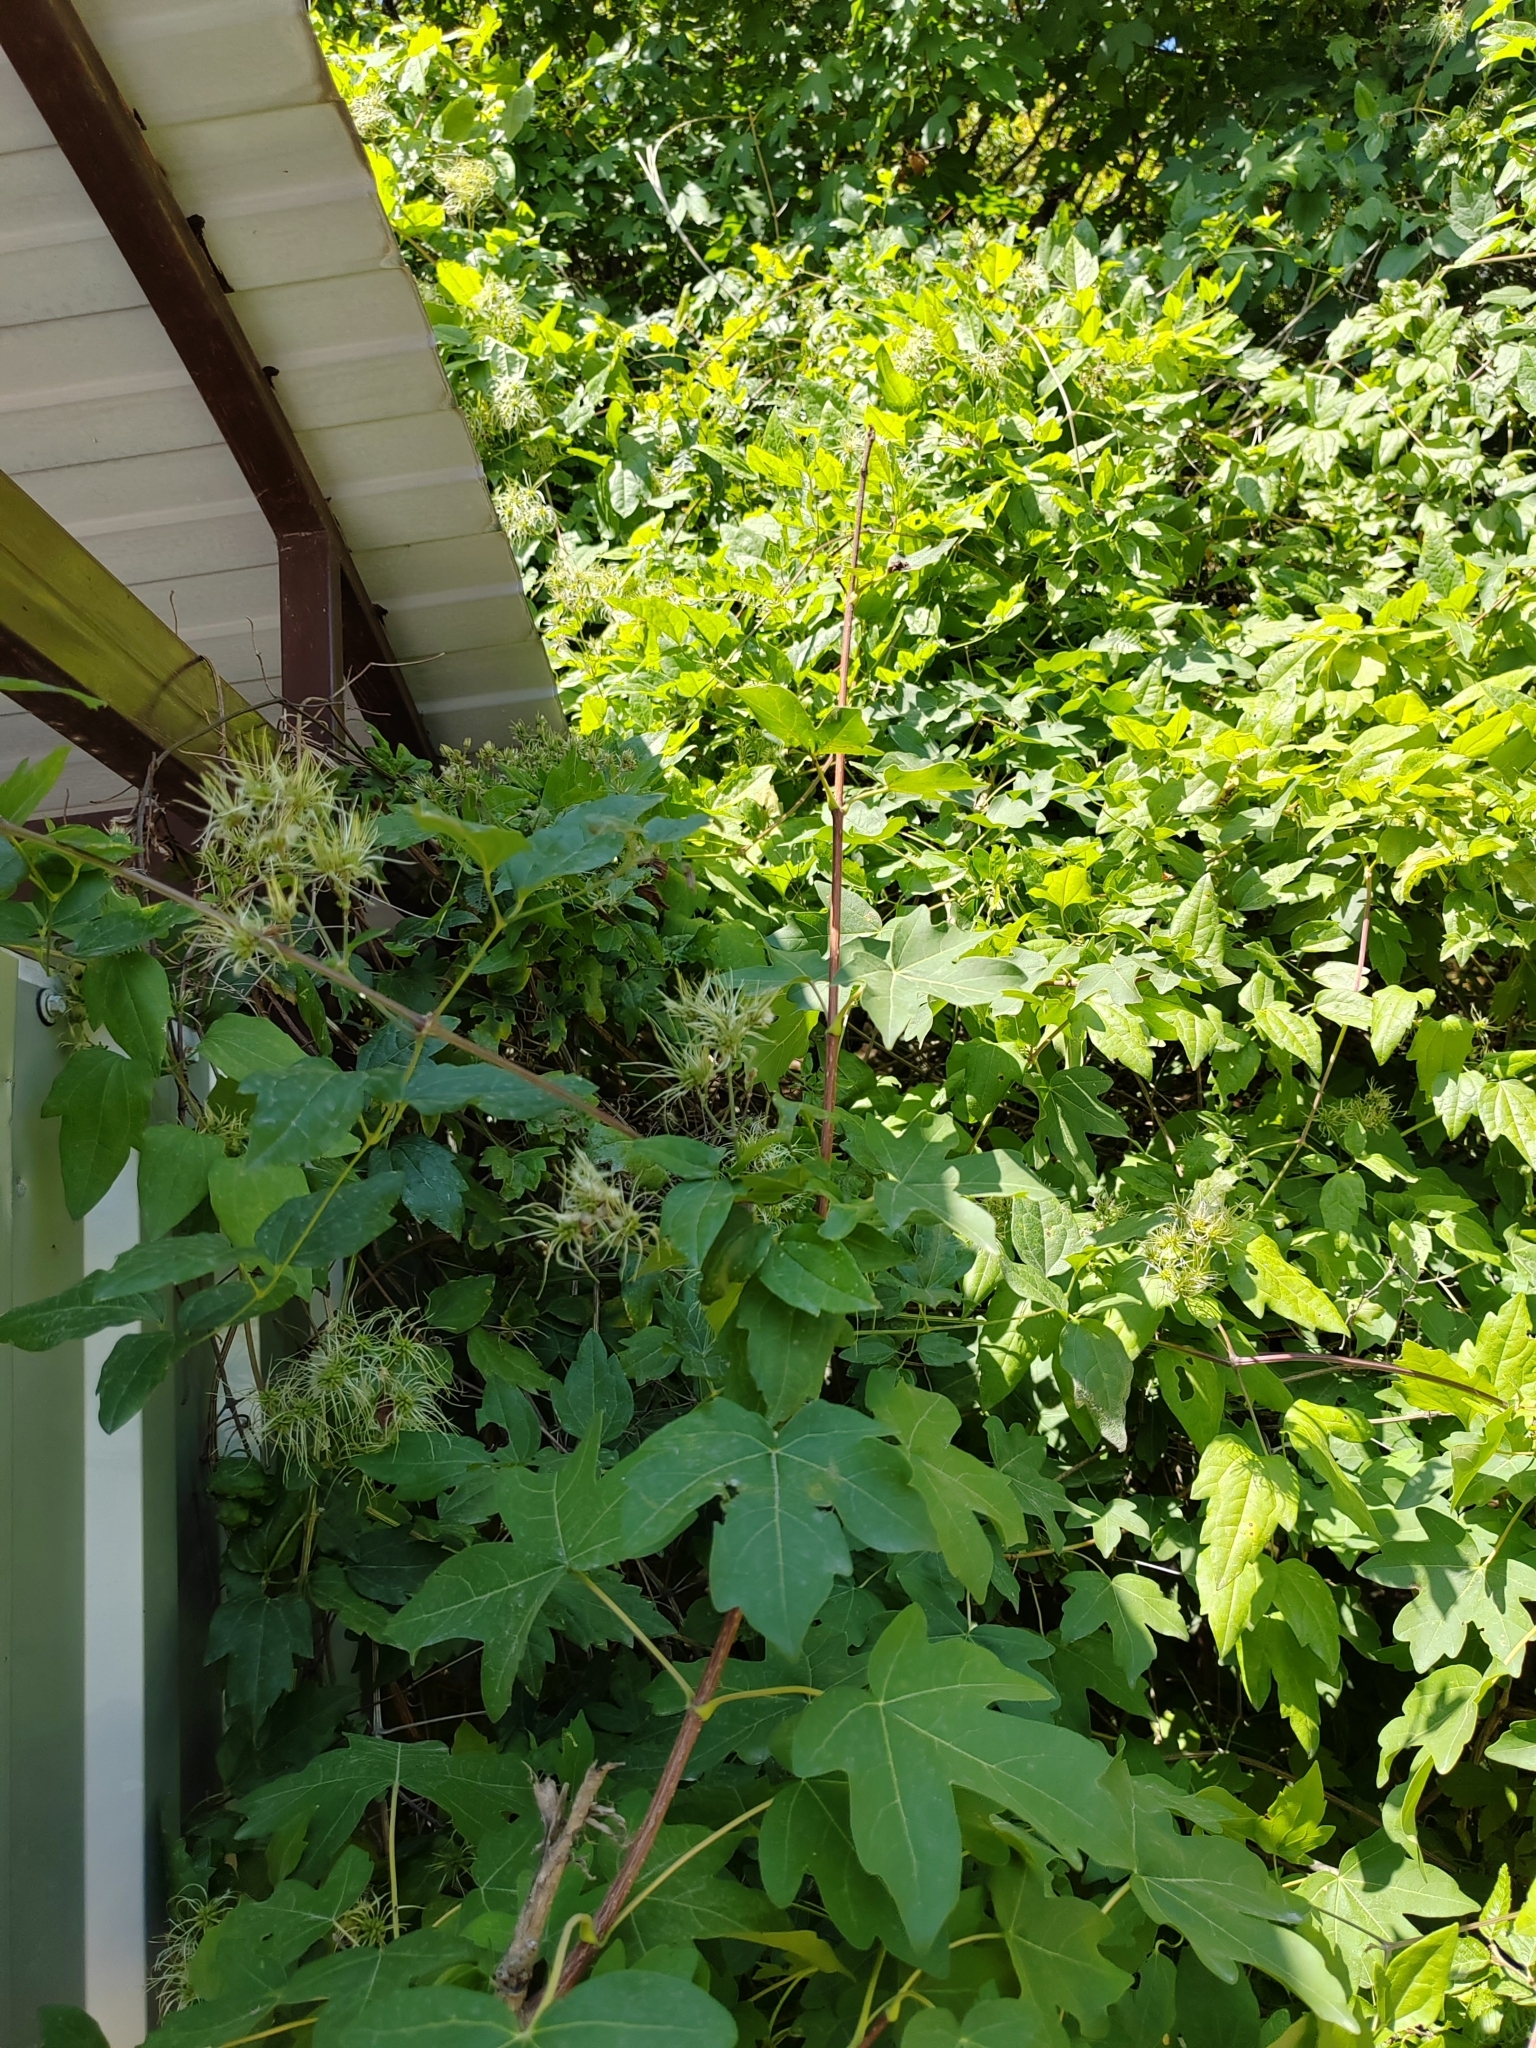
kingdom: Plantae
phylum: Tracheophyta
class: Magnoliopsida
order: Sapindales
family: Sapindaceae
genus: Acer
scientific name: Acer campestre
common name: Field maple
